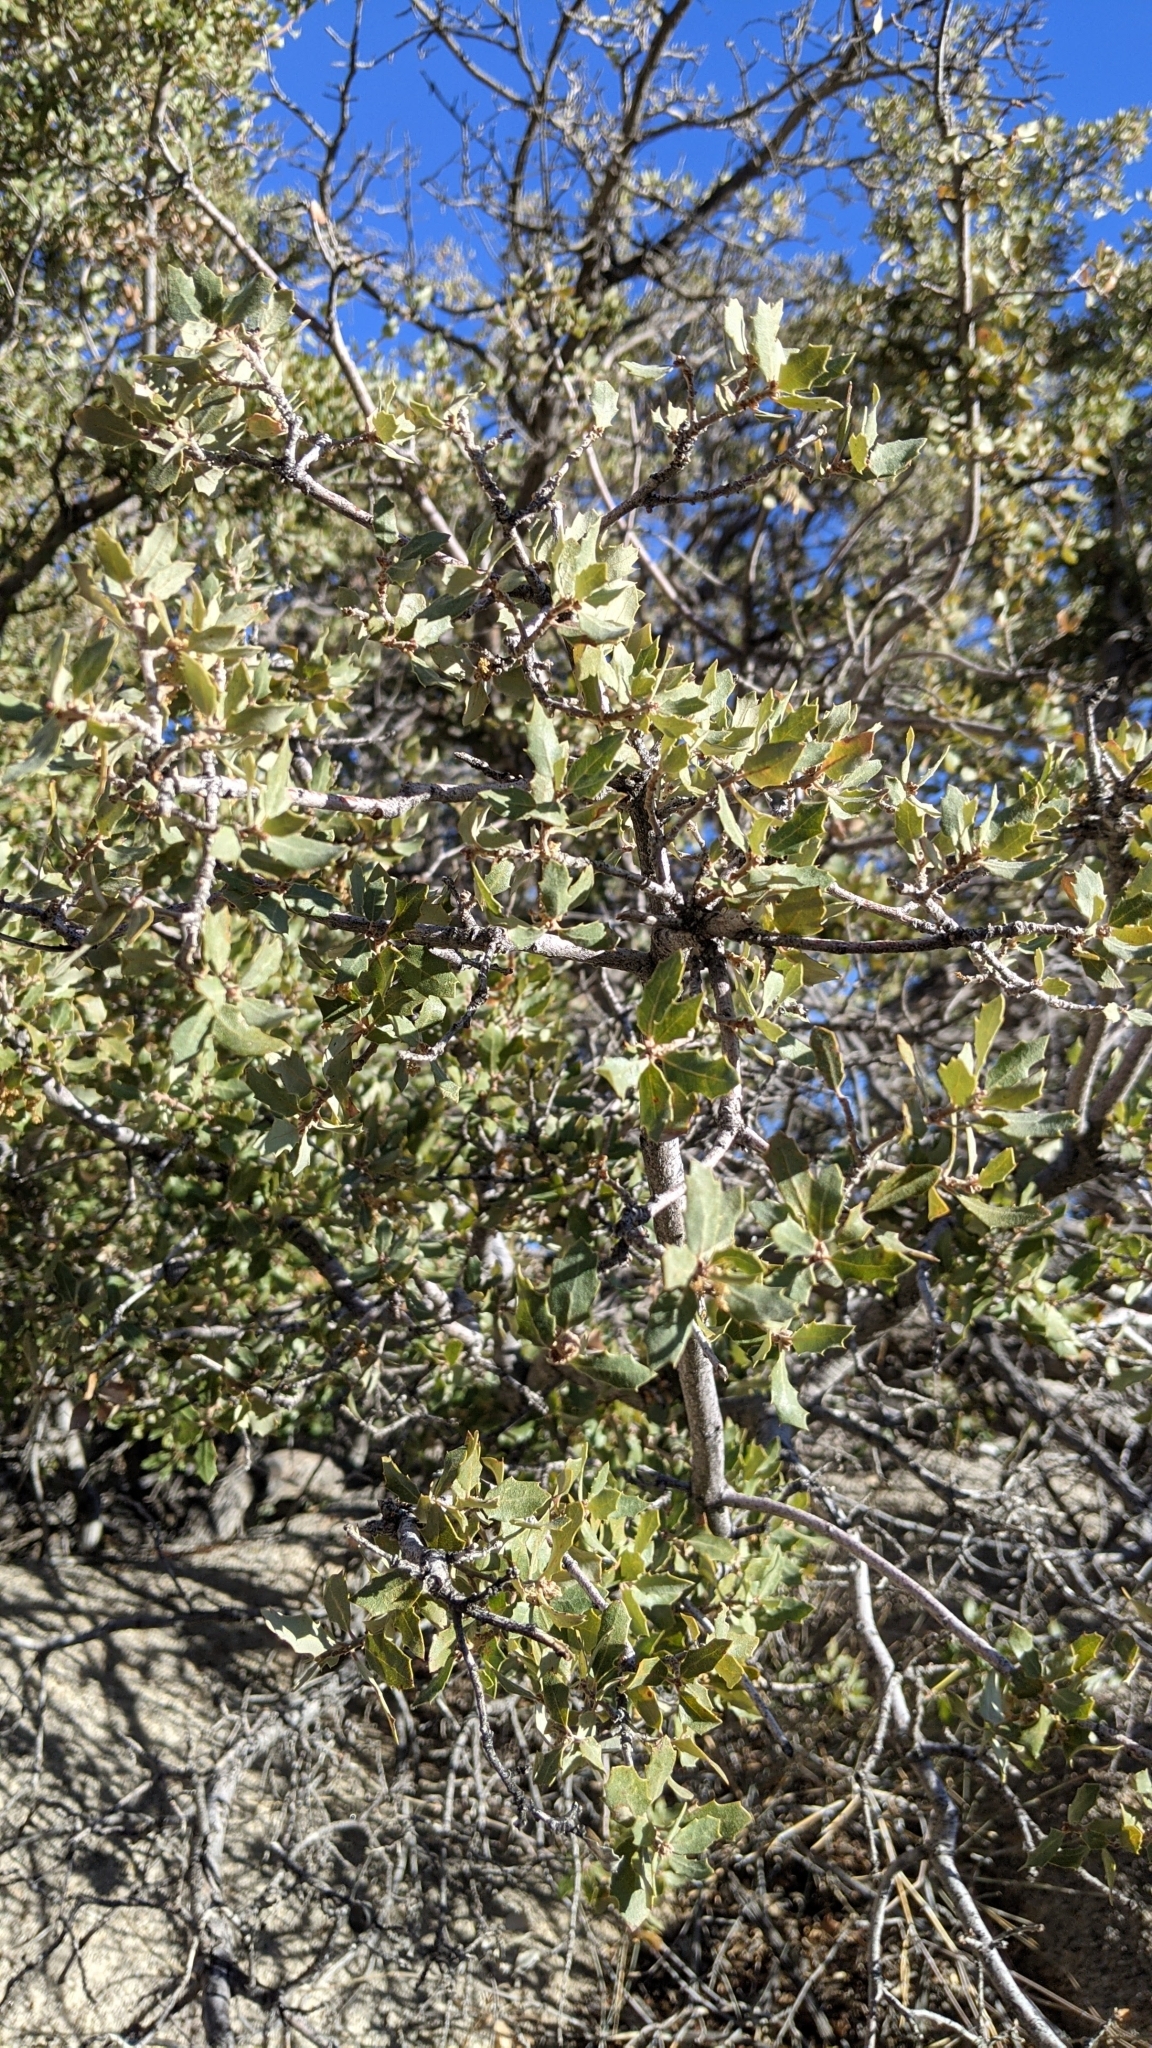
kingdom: Plantae
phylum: Tracheophyta
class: Magnoliopsida
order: Fagales
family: Fagaceae
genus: Quercus
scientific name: Quercus cornelius-mulleri
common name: Muller oak
